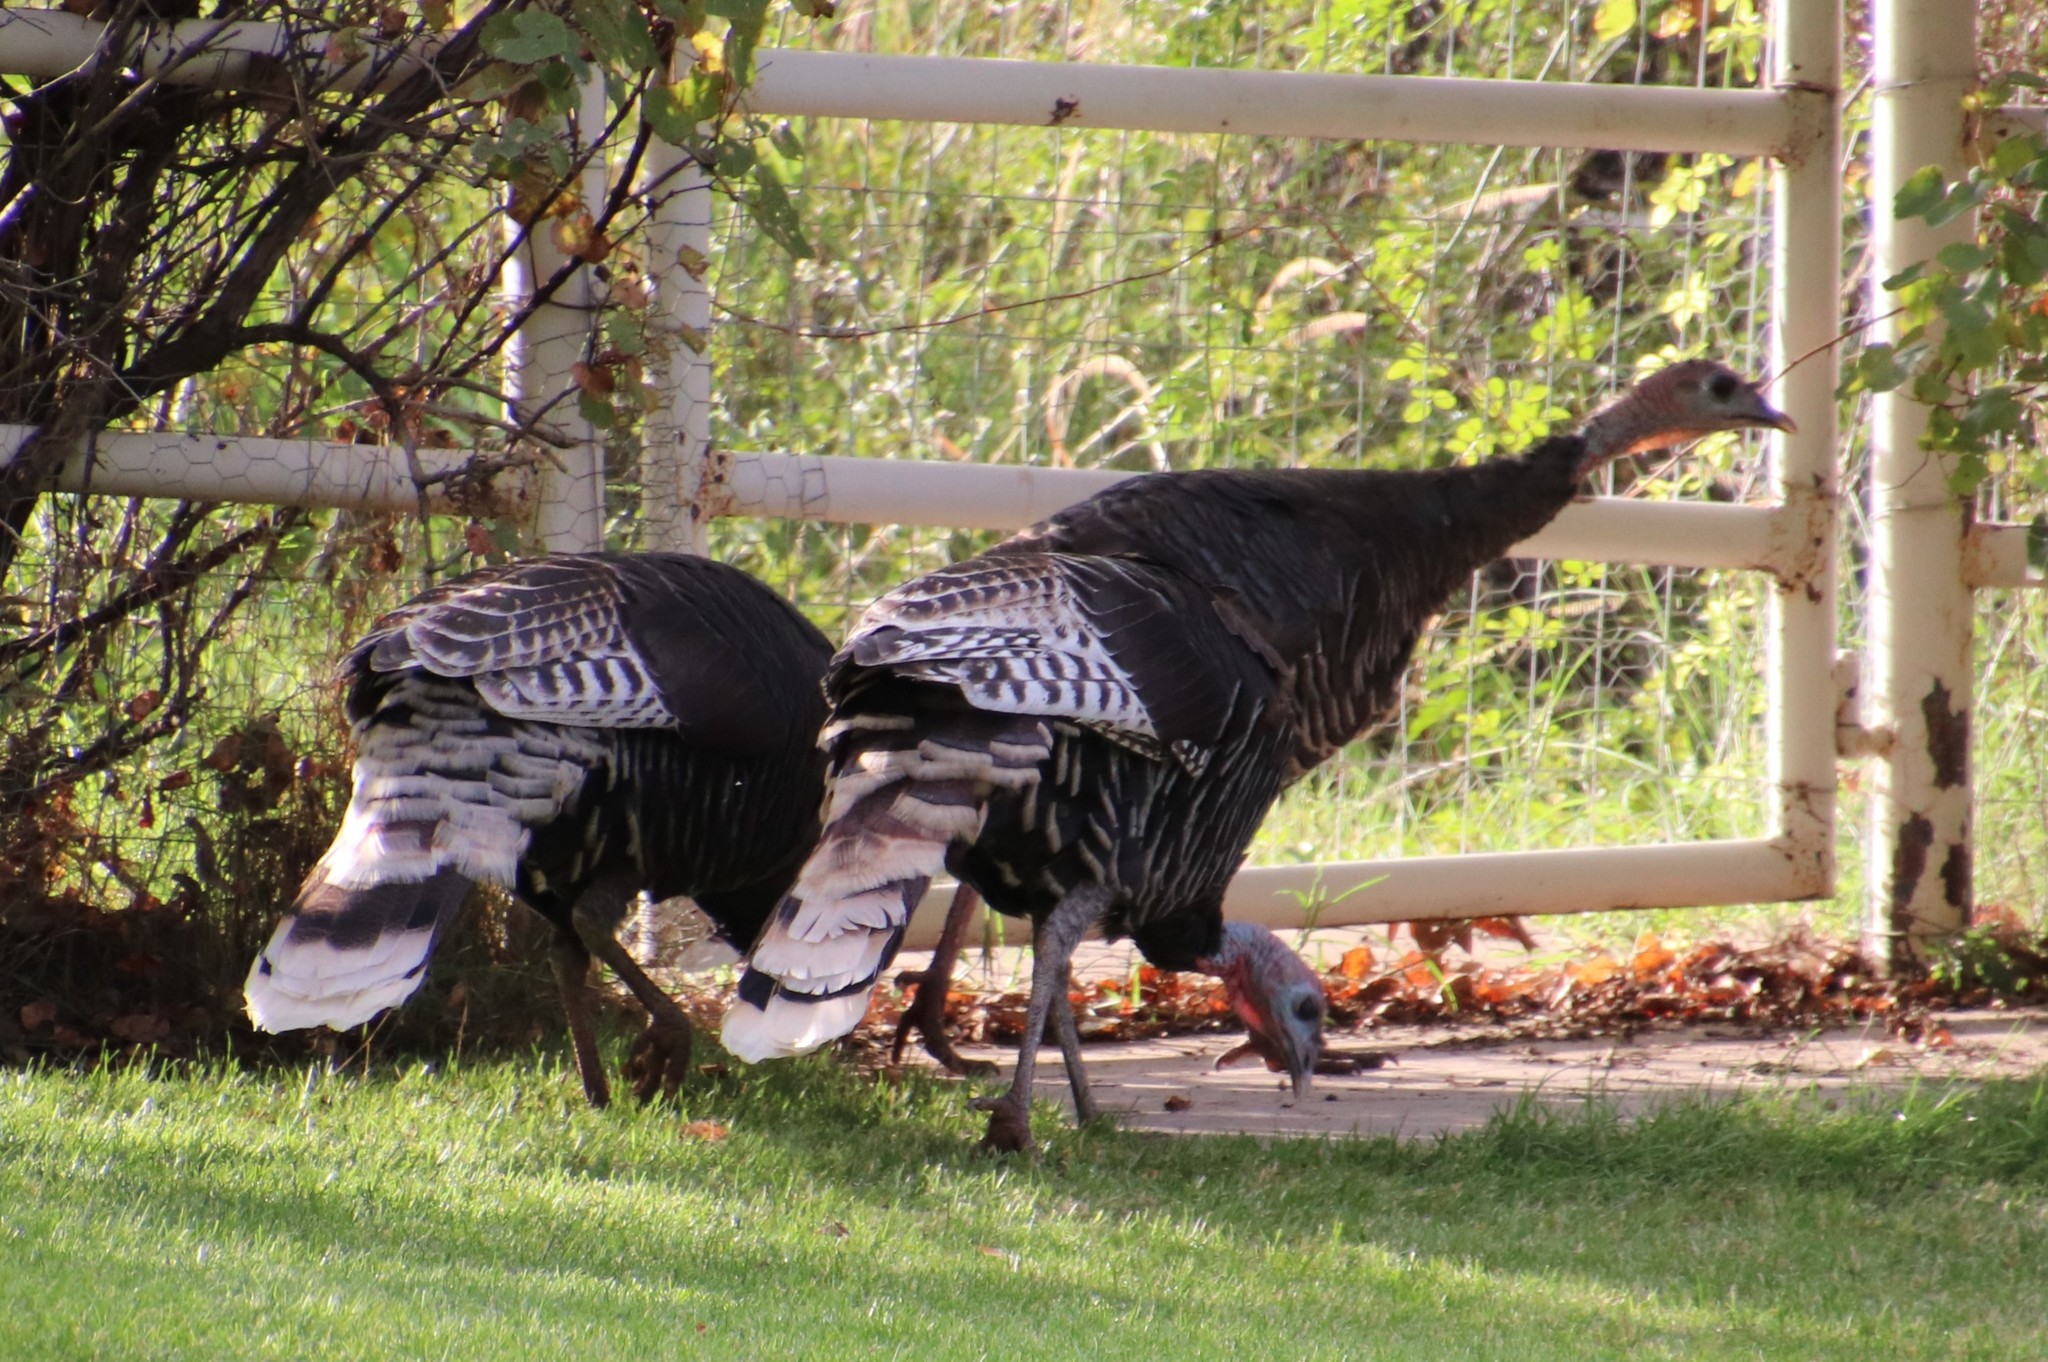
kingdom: Animalia
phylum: Chordata
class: Aves
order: Galliformes
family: Phasianidae
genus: Meleagris
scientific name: Meleagris gallopavo
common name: Wild turkey
